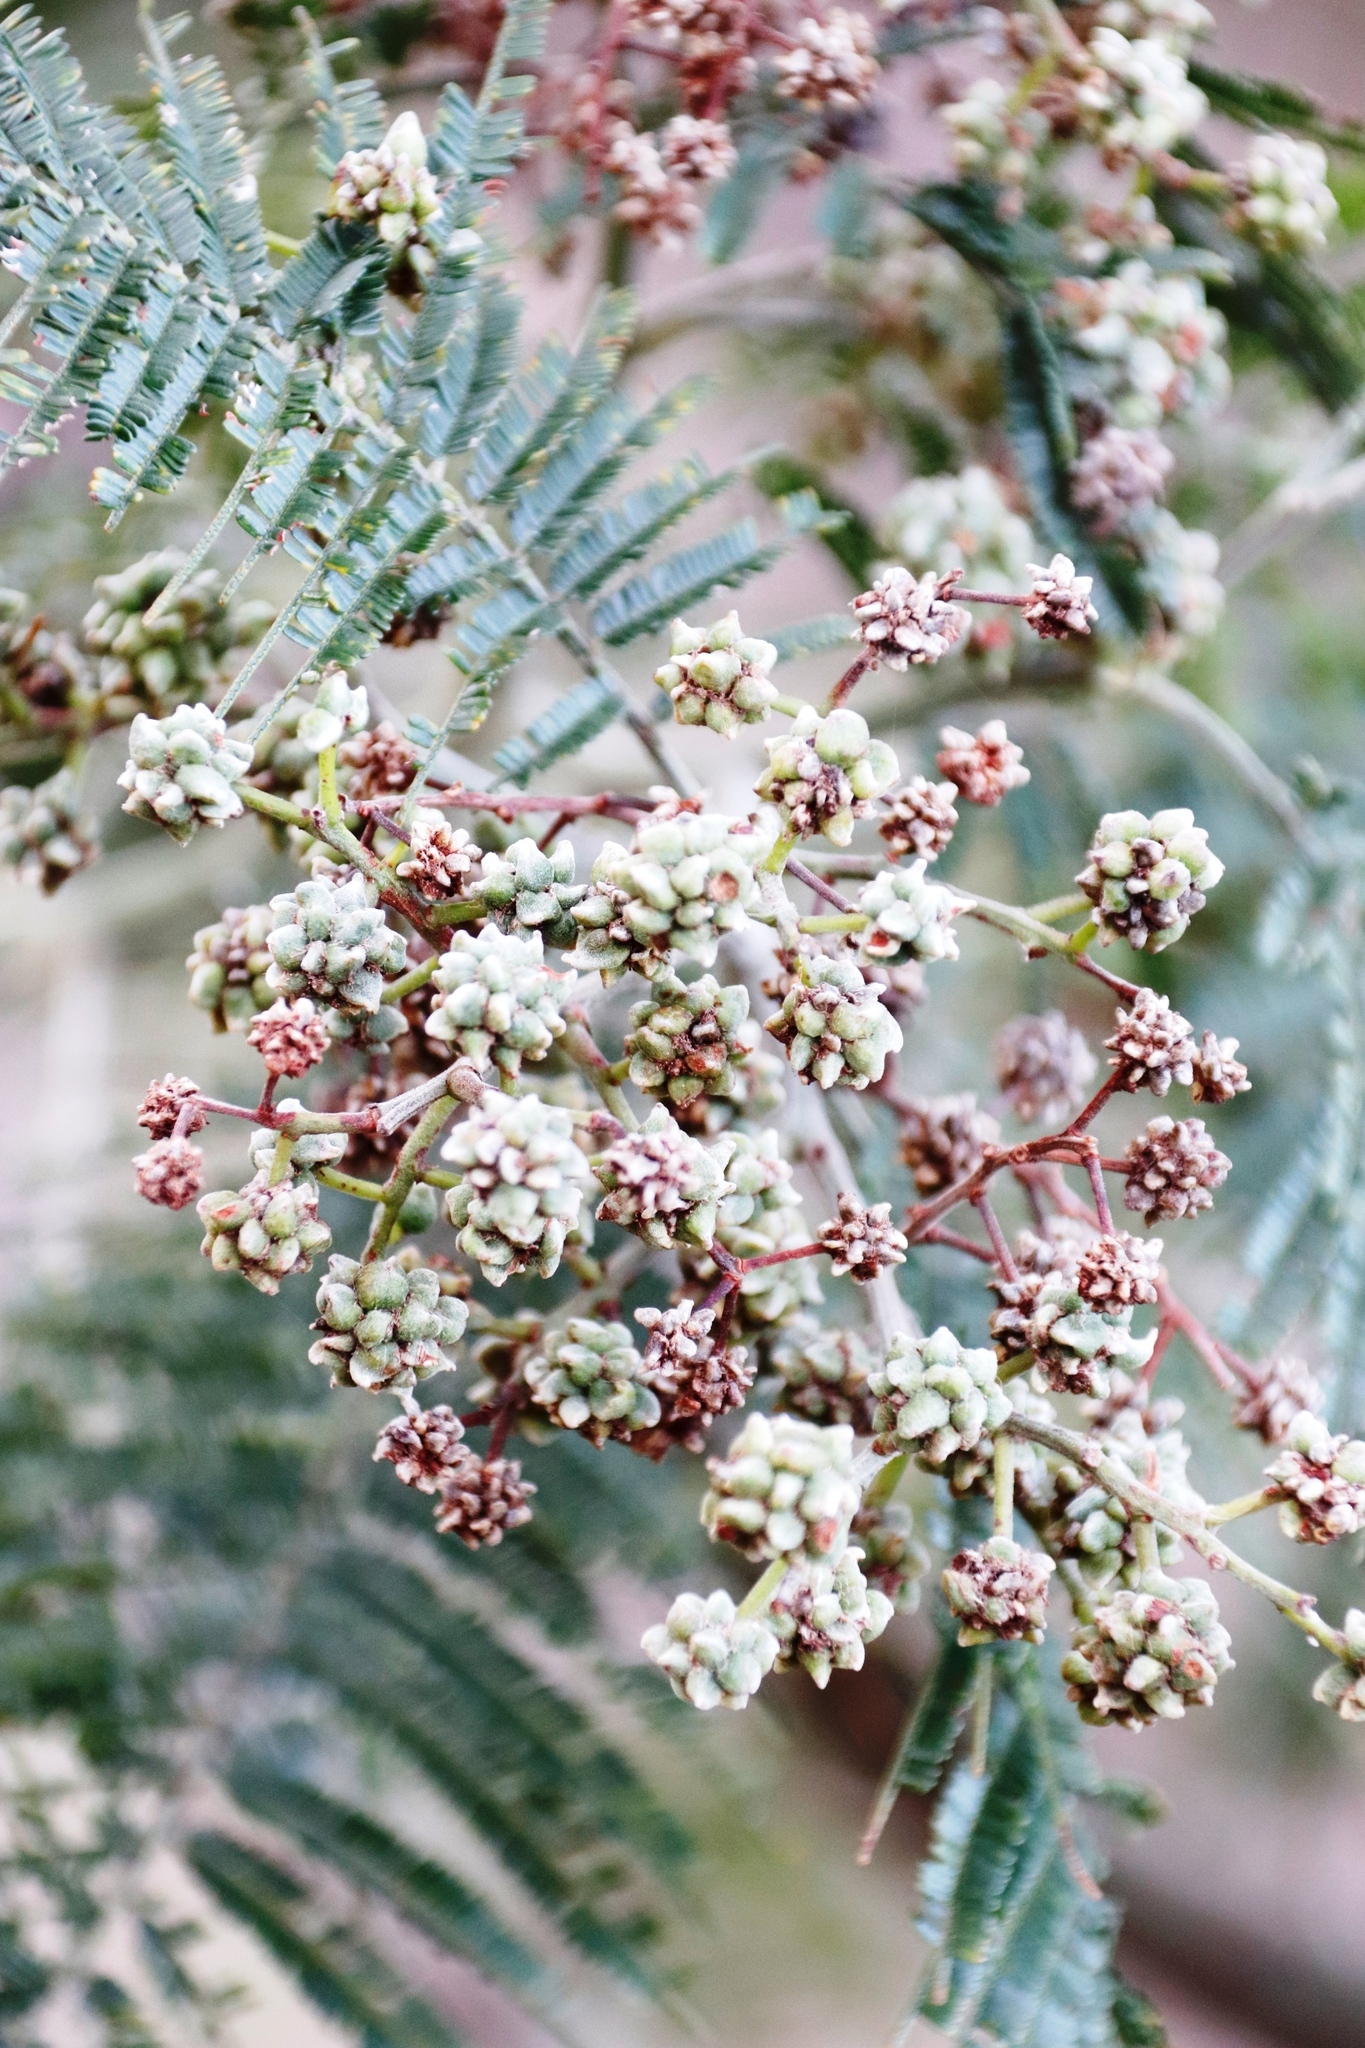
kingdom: Animalia
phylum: Arthropoda
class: Insecta
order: Diptera
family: Cecidomyiidae
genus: Dasineura
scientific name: Dasineura rubiformis
